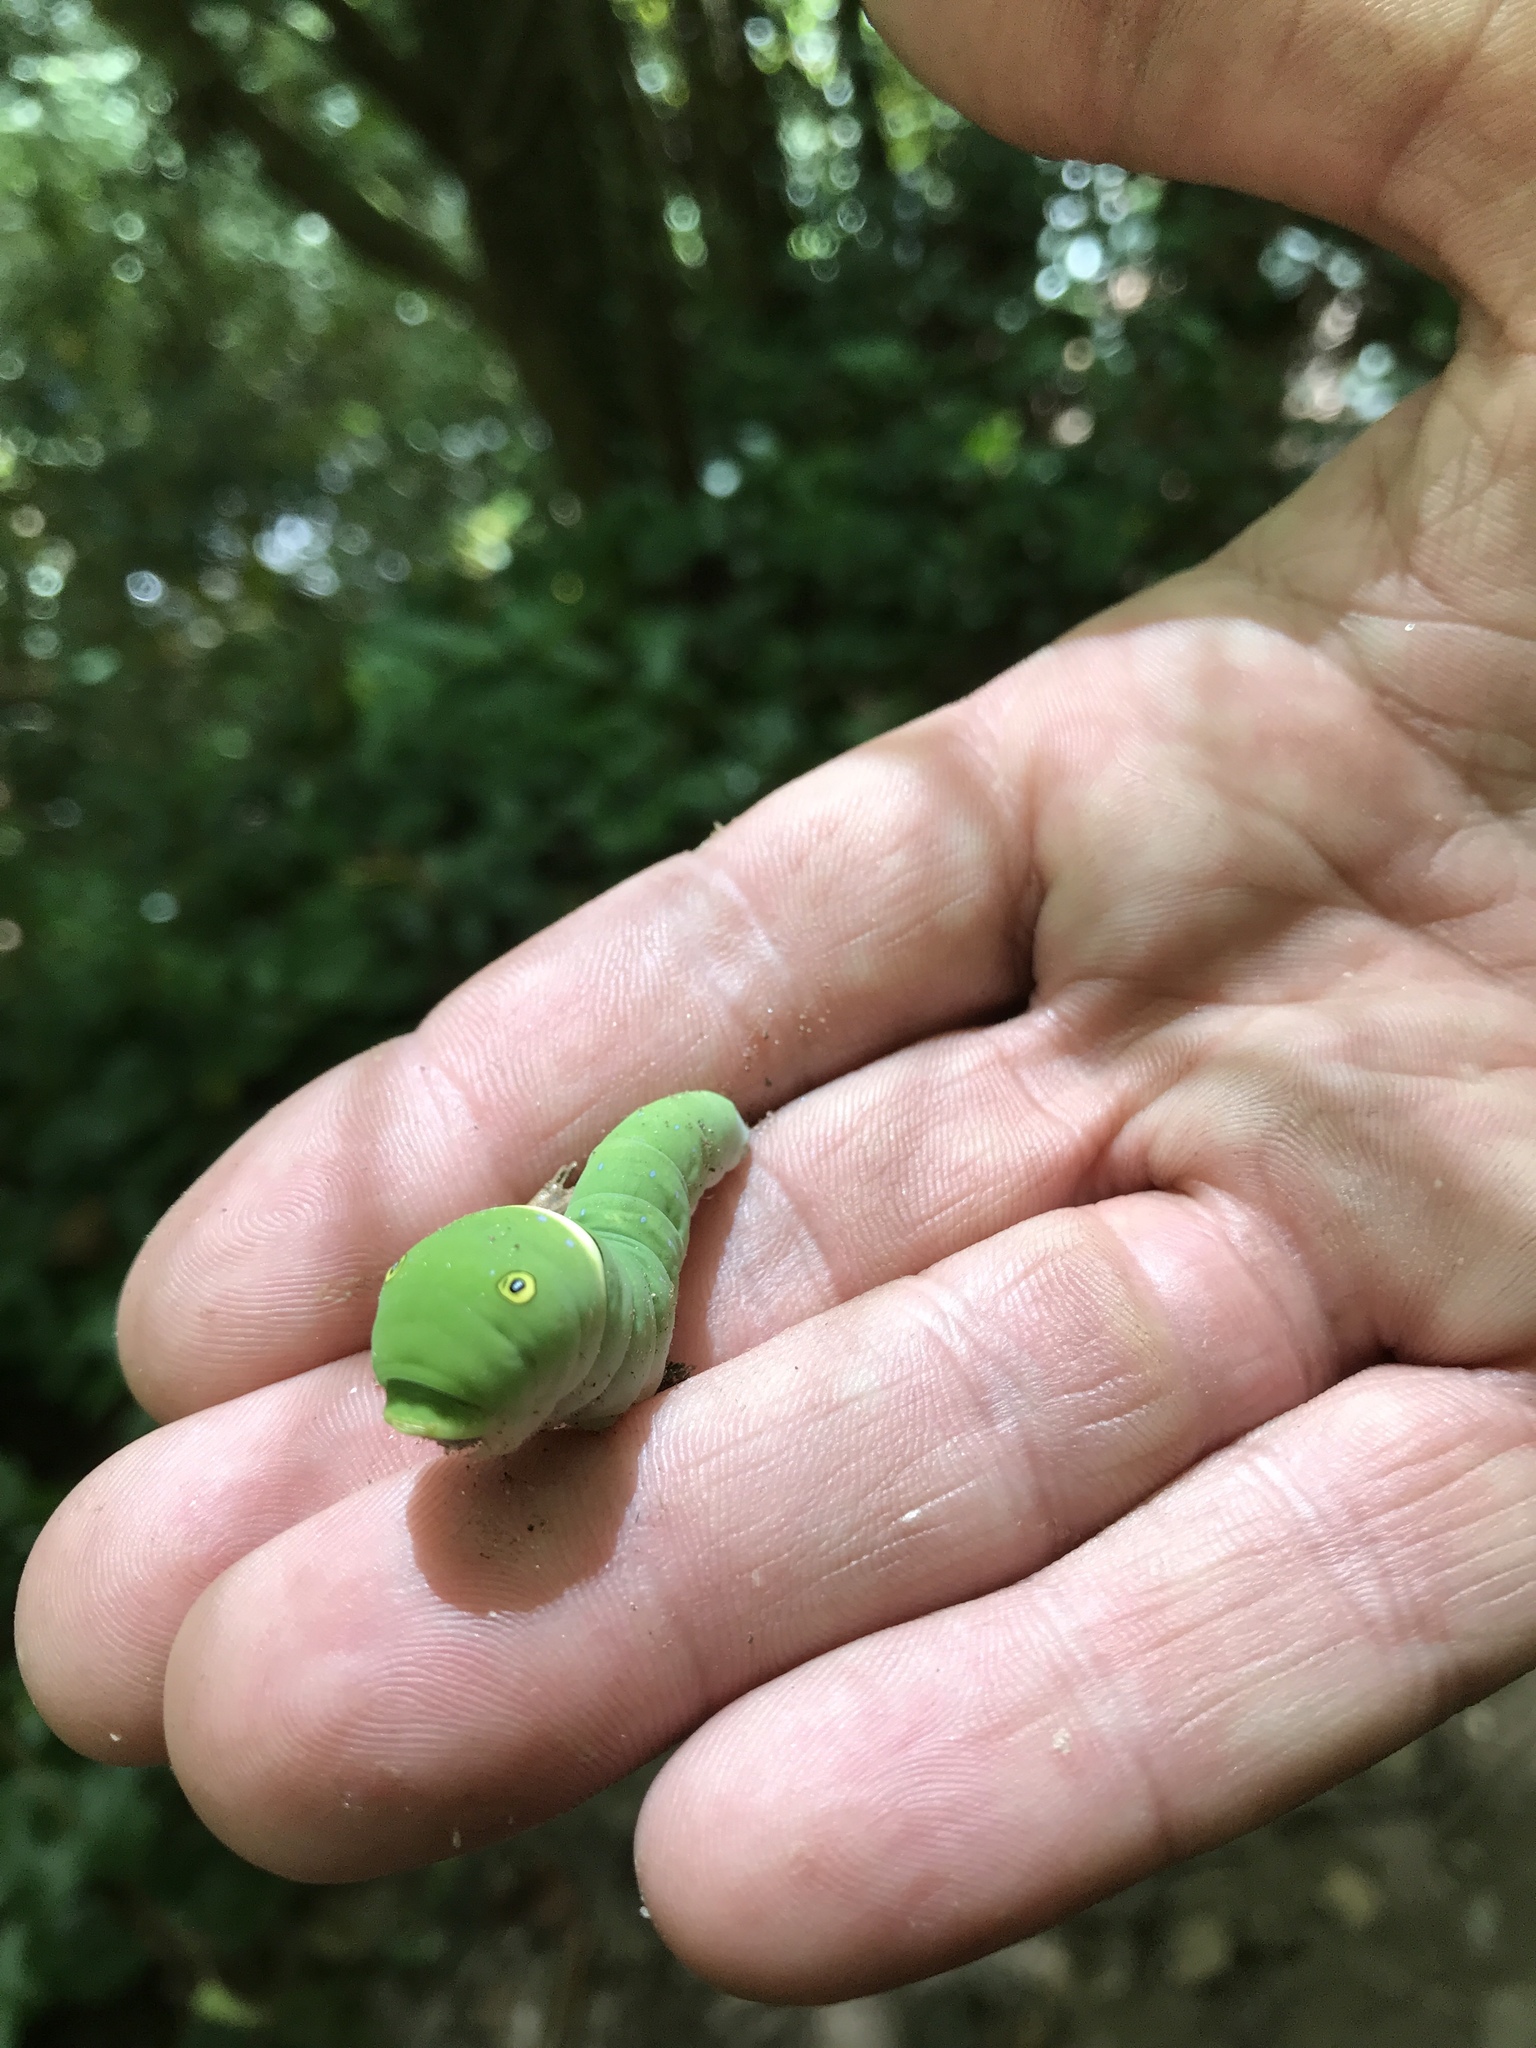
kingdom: Animalia
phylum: Arthropoda
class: Insecta
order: Lepidoptera
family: Papilionidae
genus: Papilio
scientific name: Papilio glaucus
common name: Tiger swallowtail
